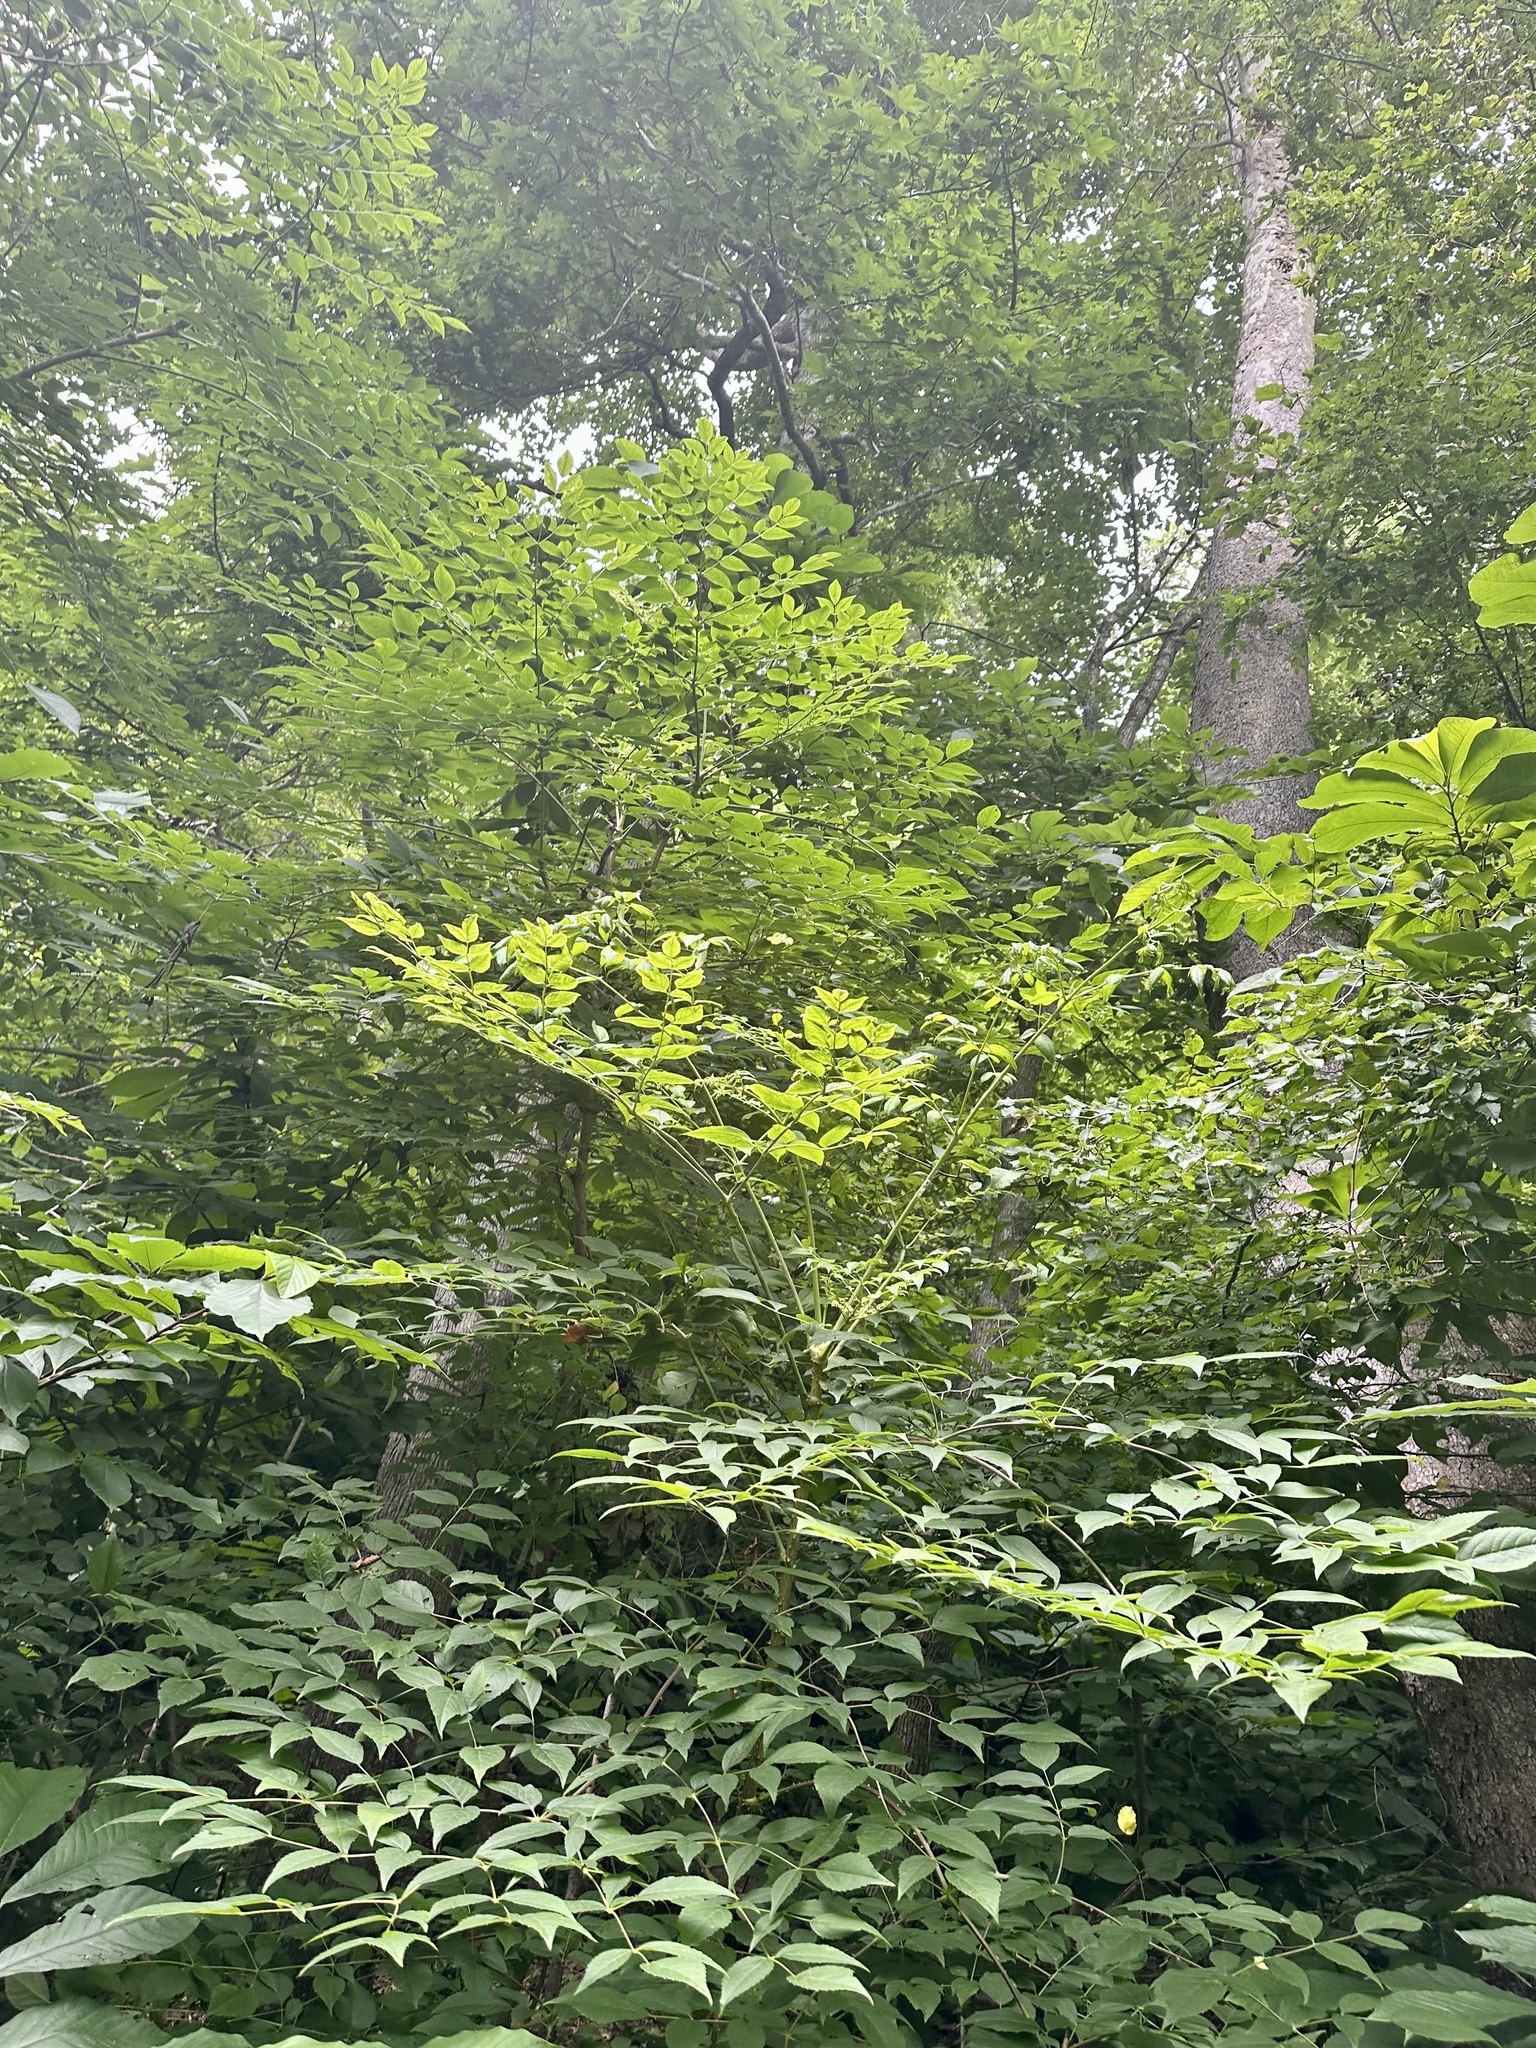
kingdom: Plantae
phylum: Tracheophyta
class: Magnoliopsida
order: Apiales
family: Araliaceae
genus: Aralia
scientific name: Aralia spinosa
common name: Hercules'-club
